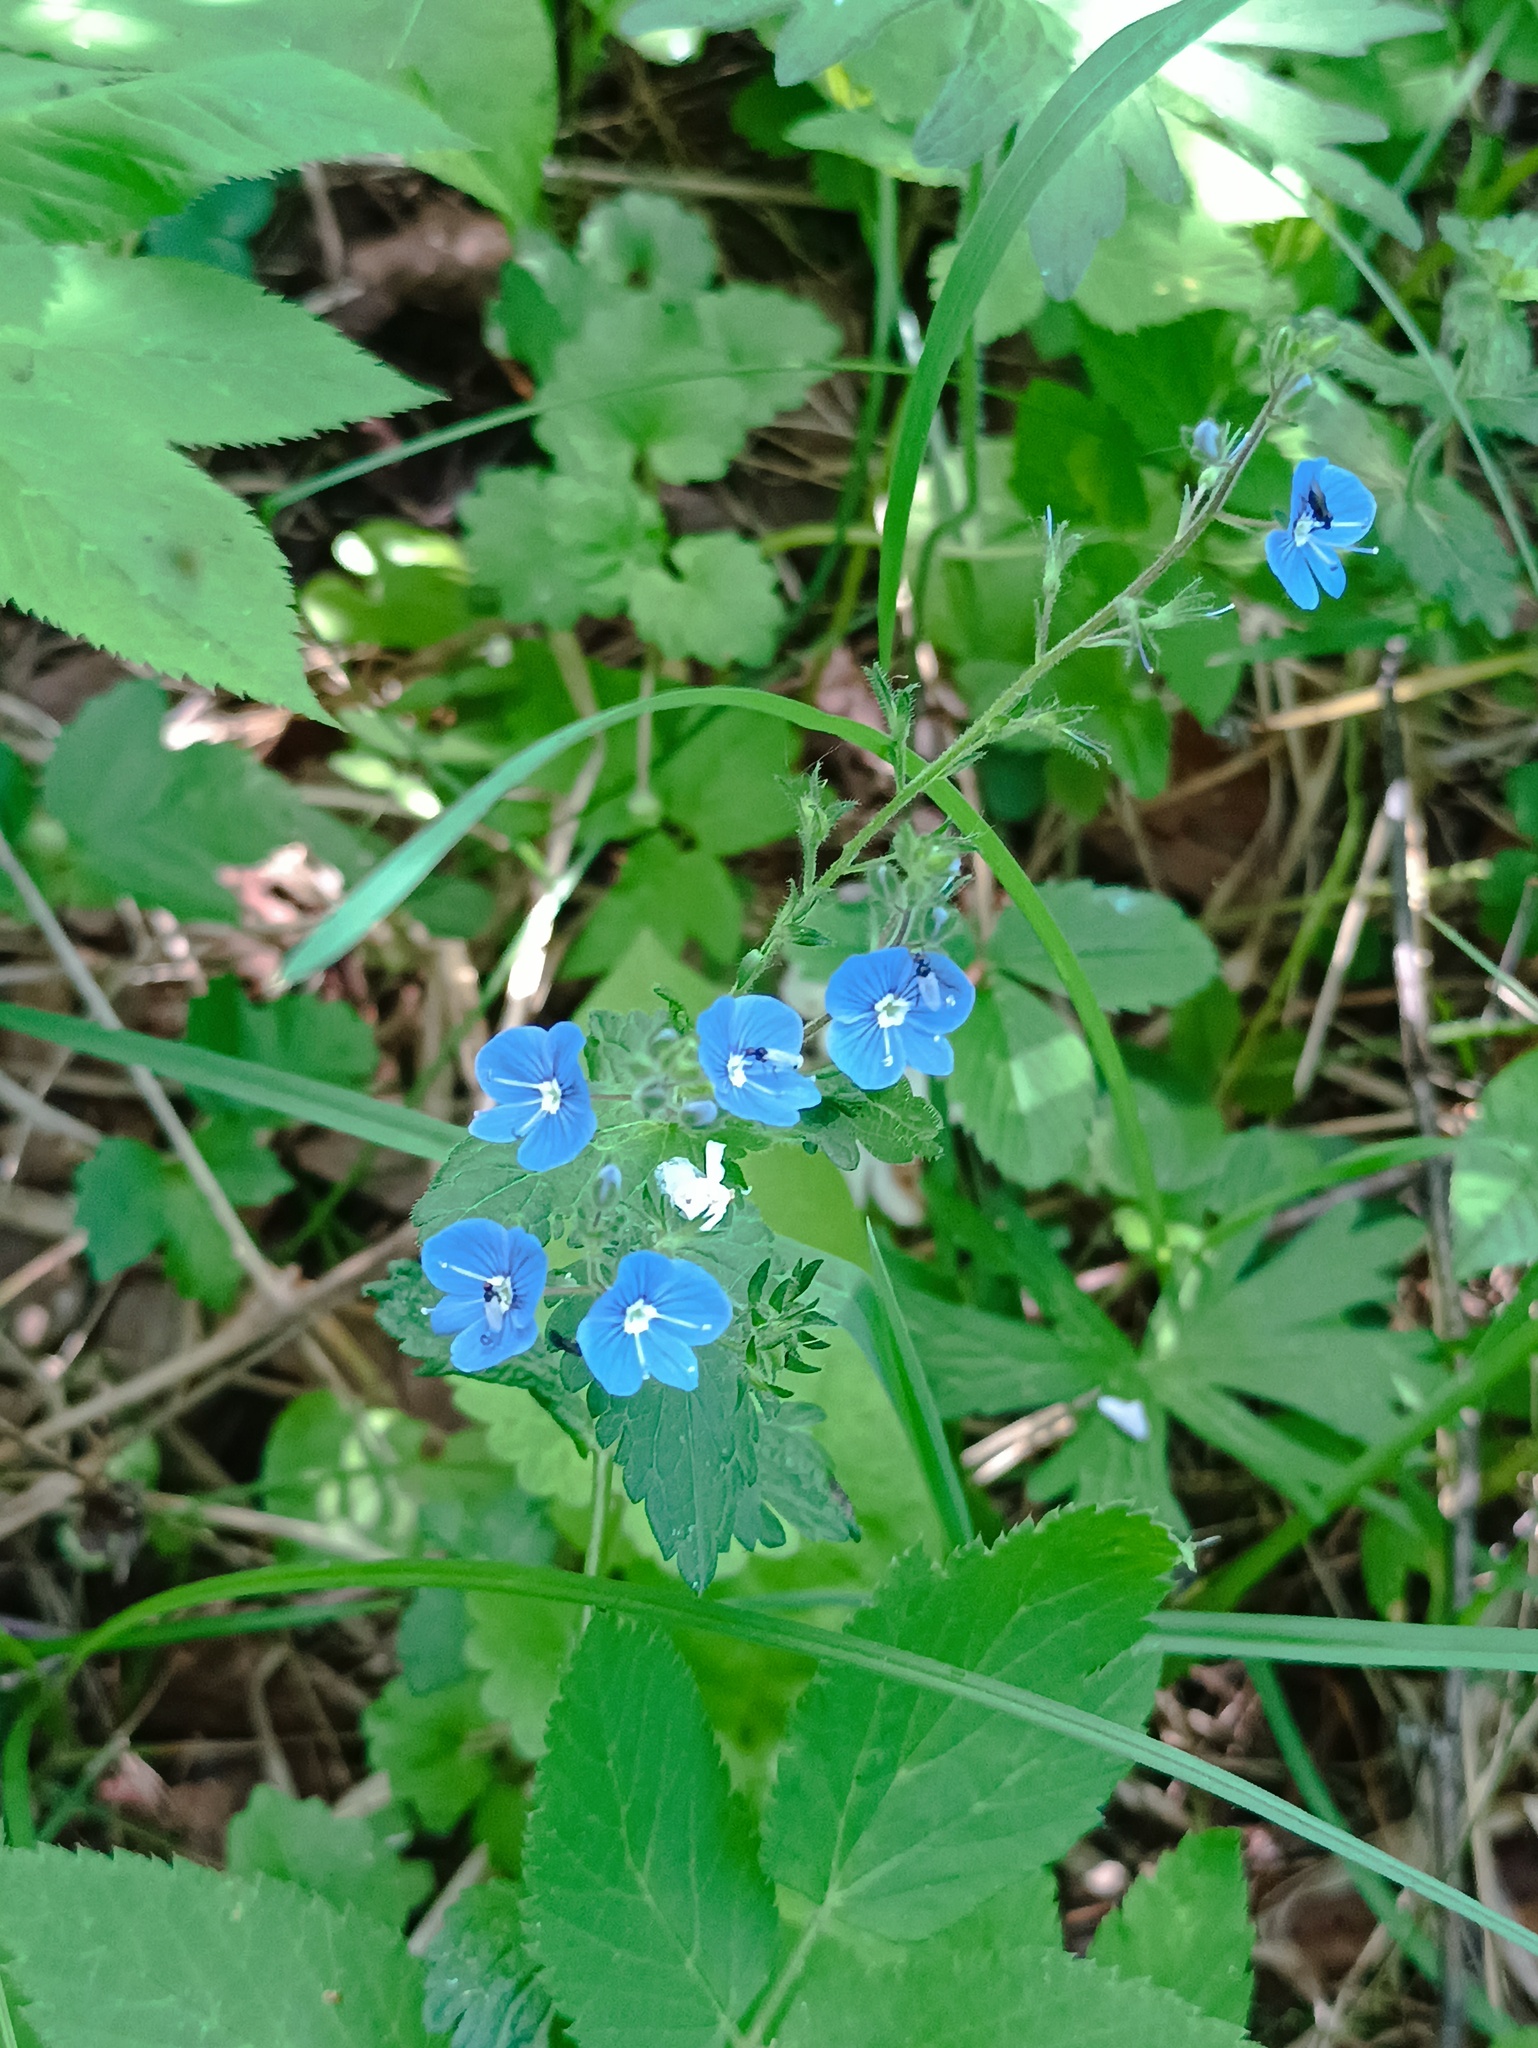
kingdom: Plantae
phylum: Tracheophyta
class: Magnoliopsida
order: Lamiales
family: Plantaginaceae
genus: Veronica
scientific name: Veronica chamaedrys
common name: Germander speedwell
